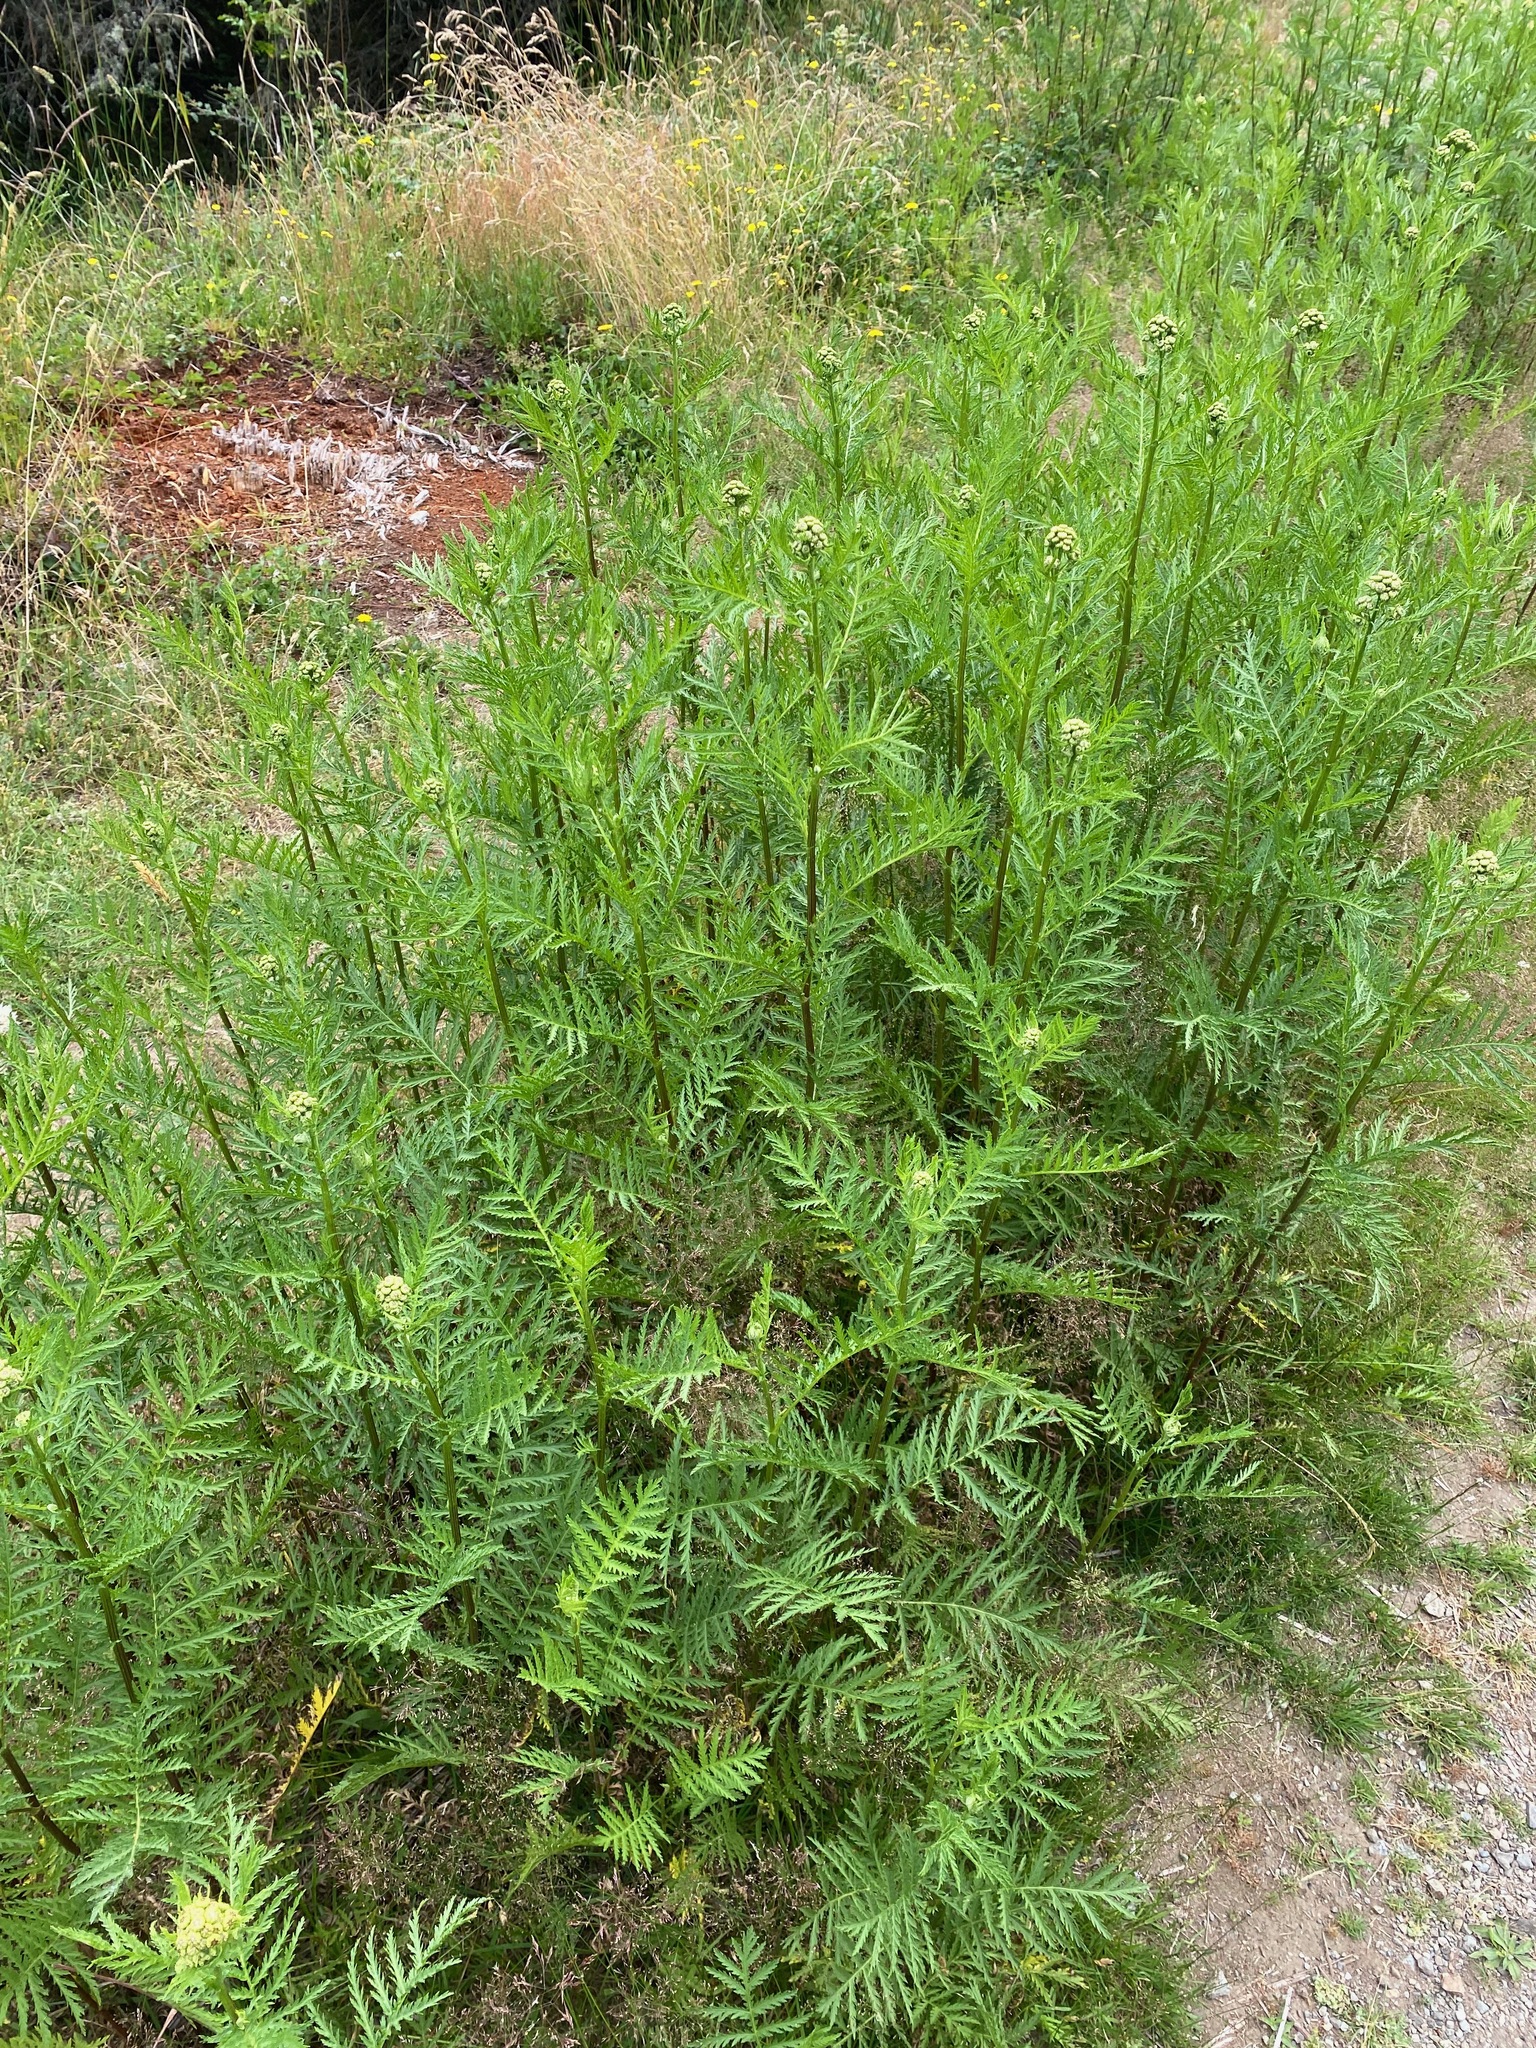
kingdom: Plantae
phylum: Tracheophyta
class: Magnoliopsida
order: Asterales
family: Asteraceae
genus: Tanacetum
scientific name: Tanacetum vulgare
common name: Common tansy
